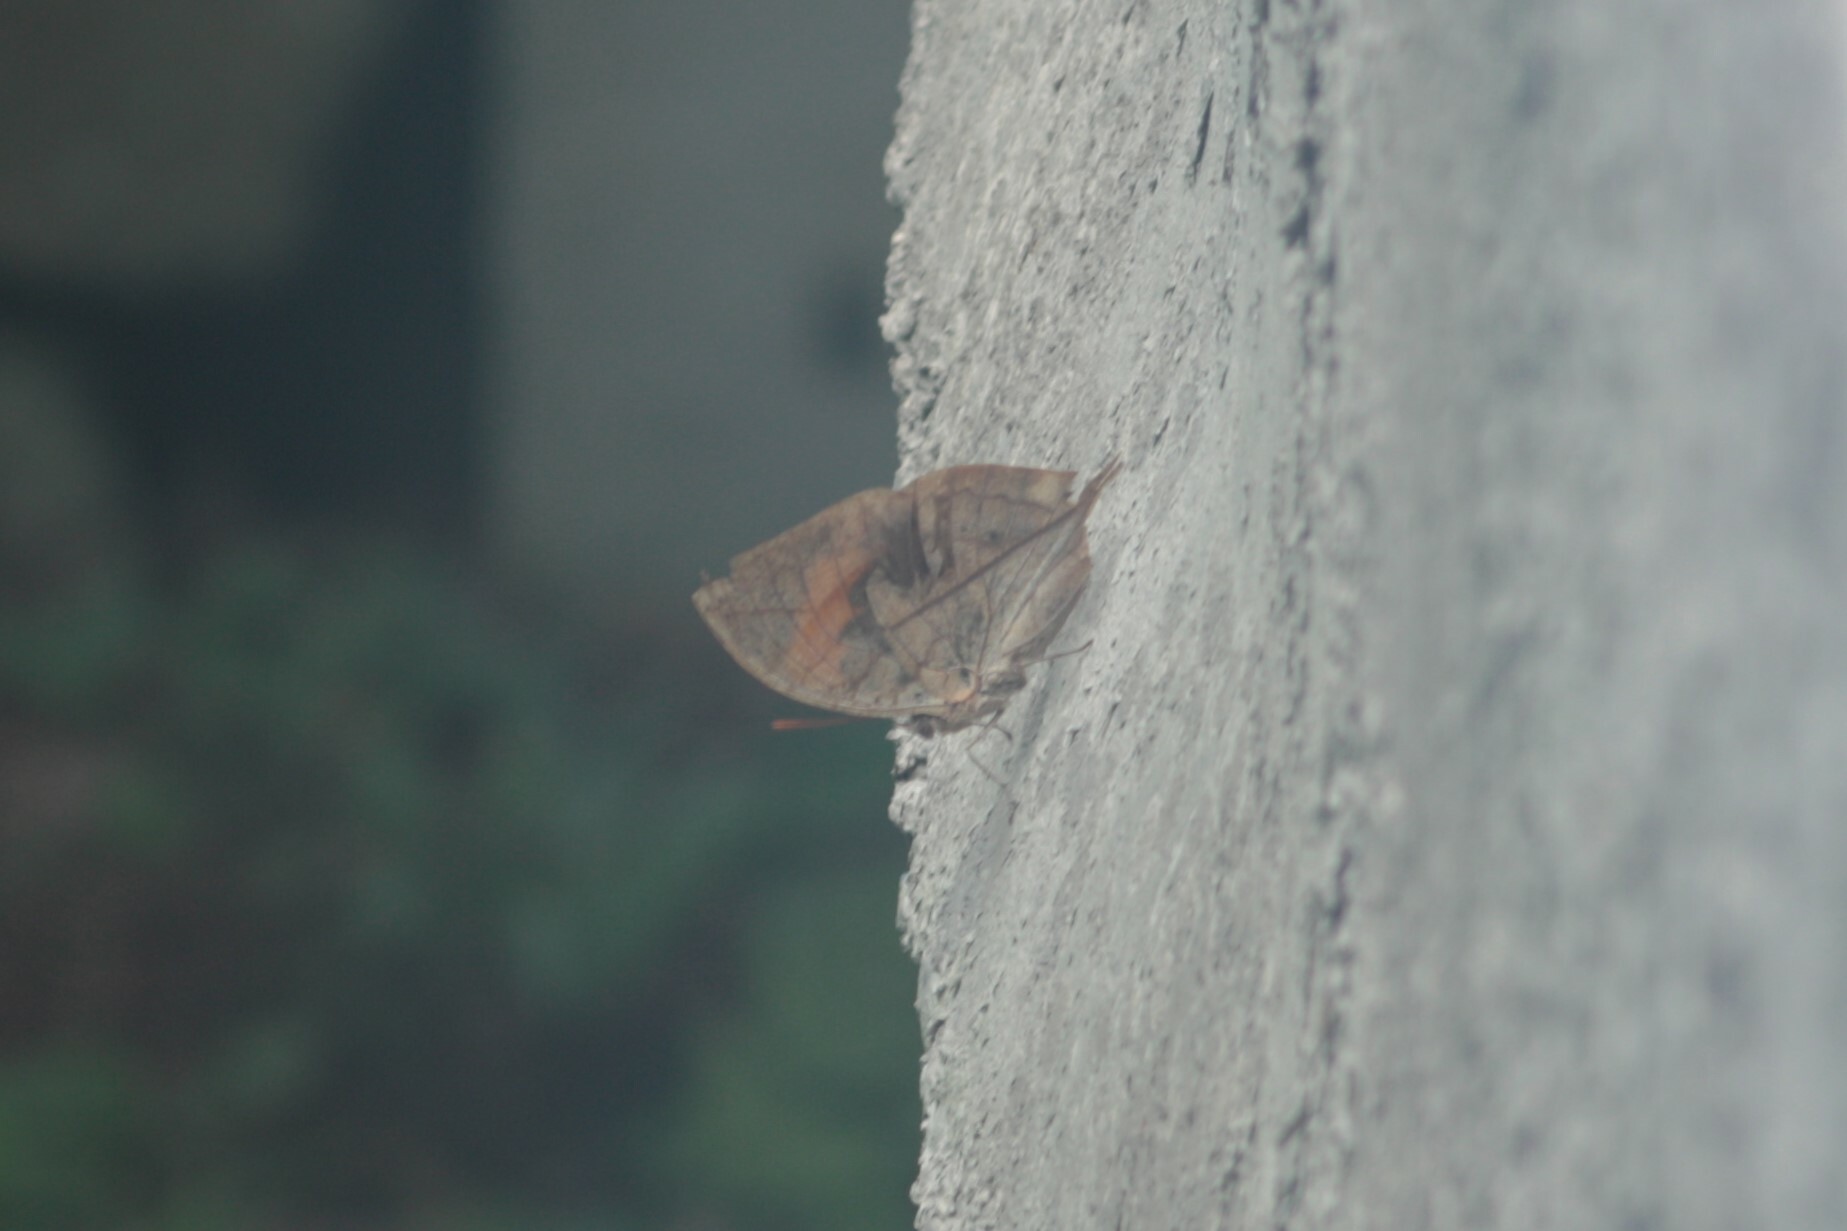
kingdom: Animalia
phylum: Arthropoda
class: Insecta
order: Lepidoptera
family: Nymphalidae
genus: Kallima
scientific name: Kallima inachus
